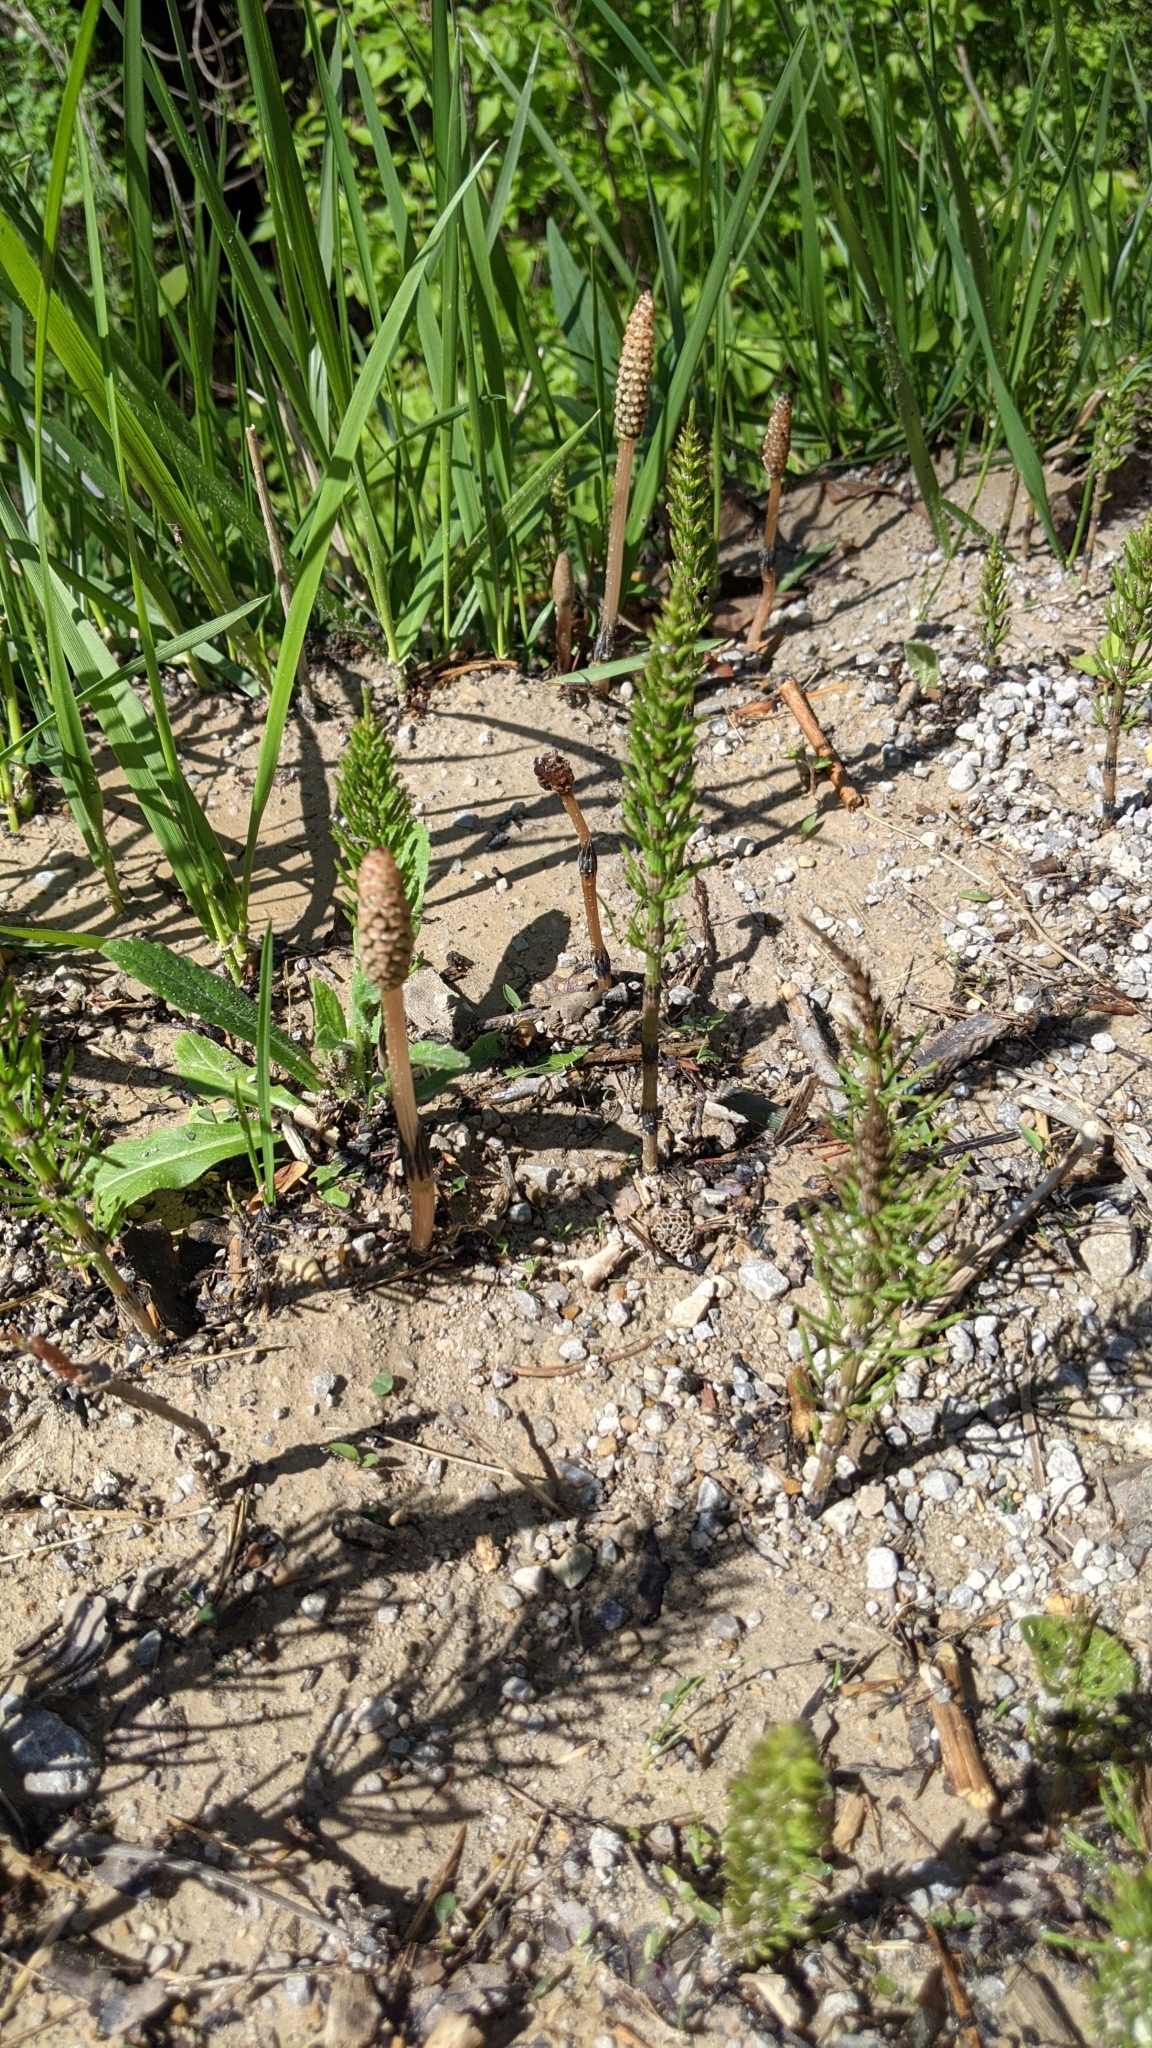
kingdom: Plantae
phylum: Tracheophyta
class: Polypodiopsida
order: Equisetales
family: Equisetaceae
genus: Equisetum
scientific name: Equisetum arvense
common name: Field horsetail
